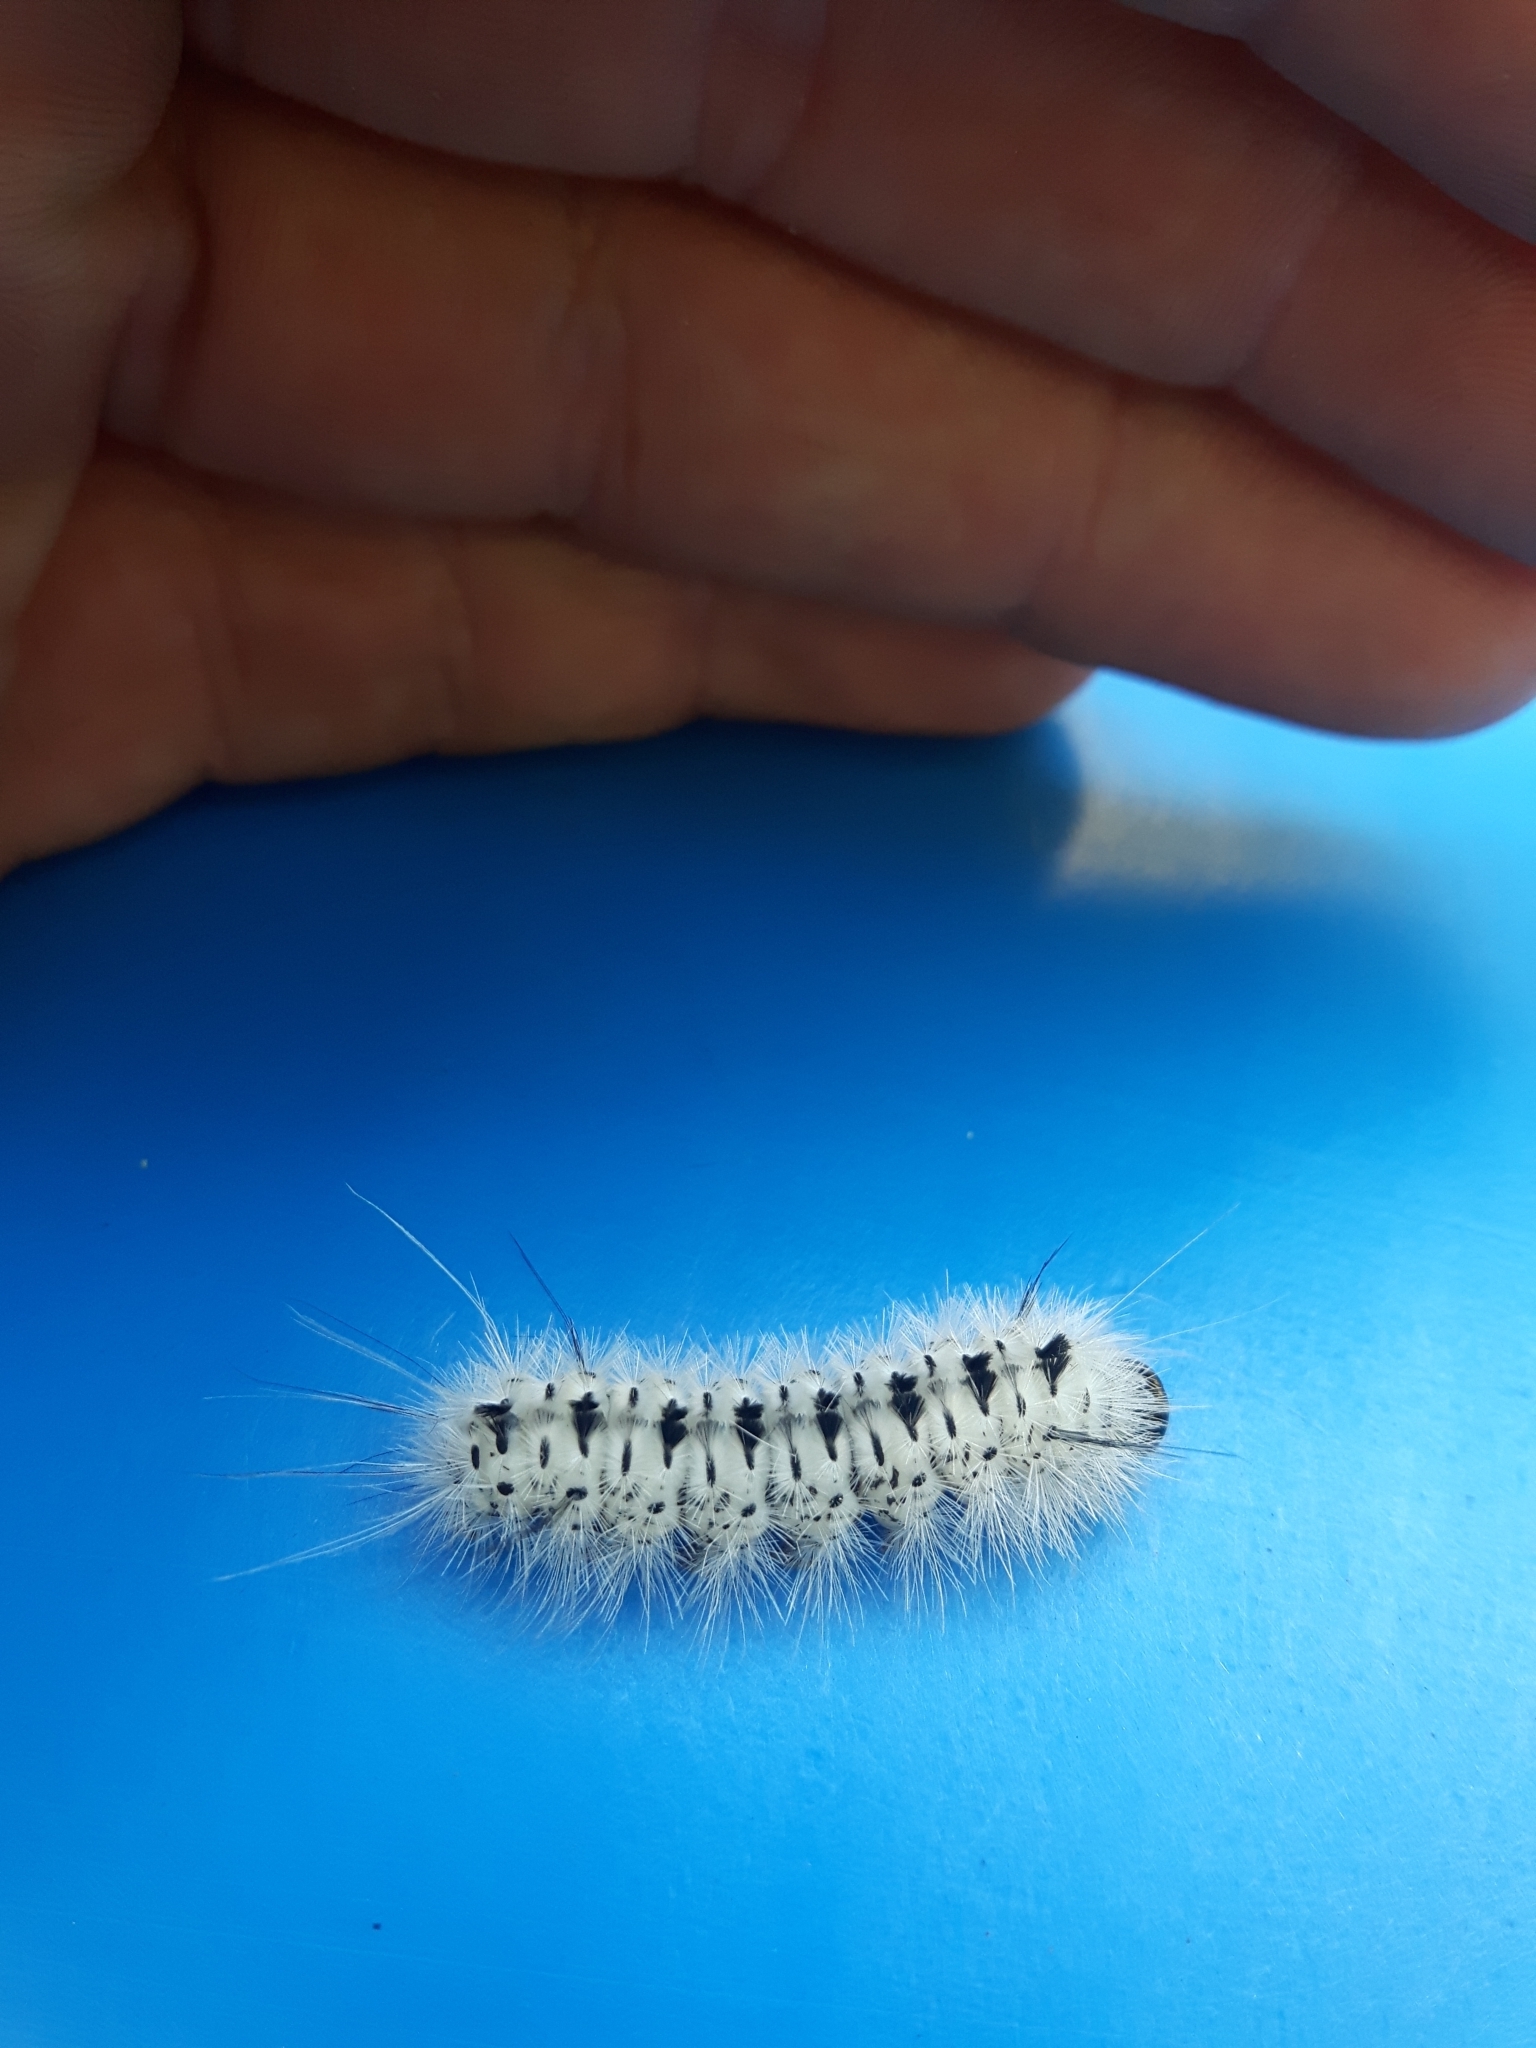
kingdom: Animalia
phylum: Arthropoda
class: Insecta
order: Lepidoptera
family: Erebidae
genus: Lophocampa
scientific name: Lophocampa caryae
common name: Hickory tussock moth
